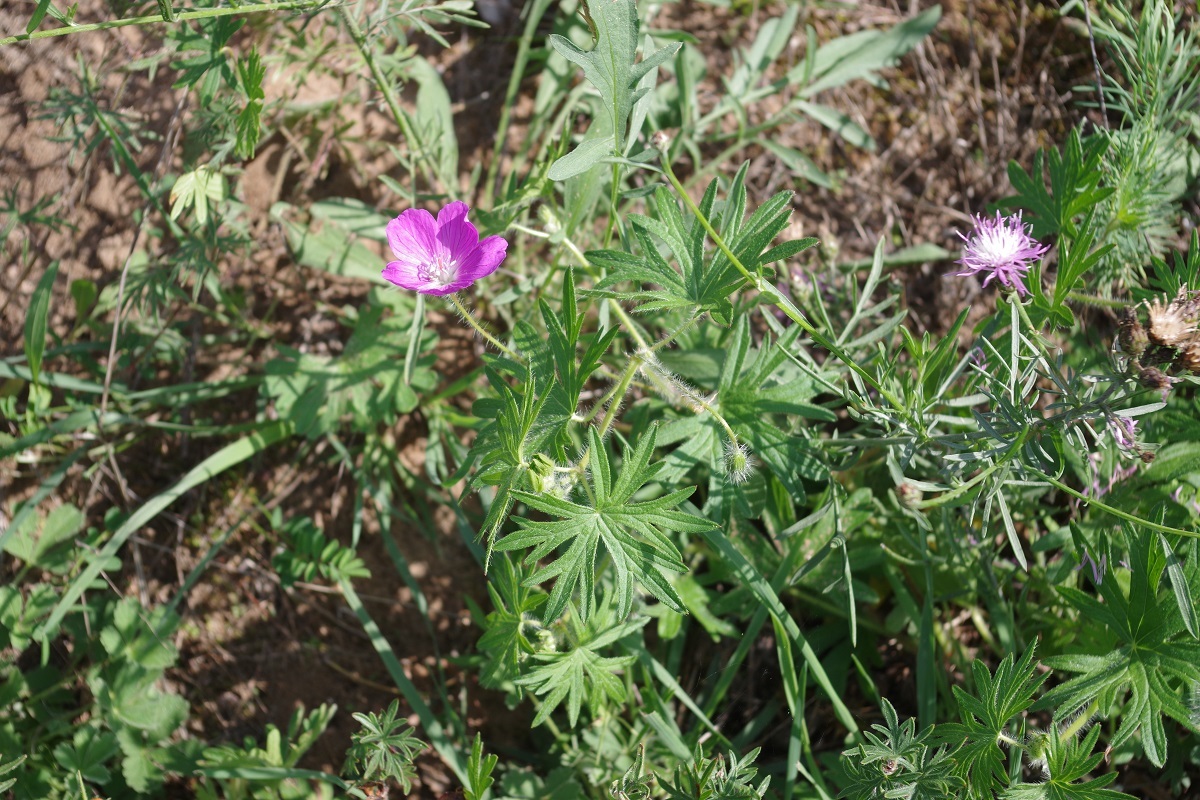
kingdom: Plantae
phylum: Tracheophyta
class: Magnoliopsida
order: Geraniales
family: Geraniaceae
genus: Geranium
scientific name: Geranium sanguineum
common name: Bloody crane's-bill
